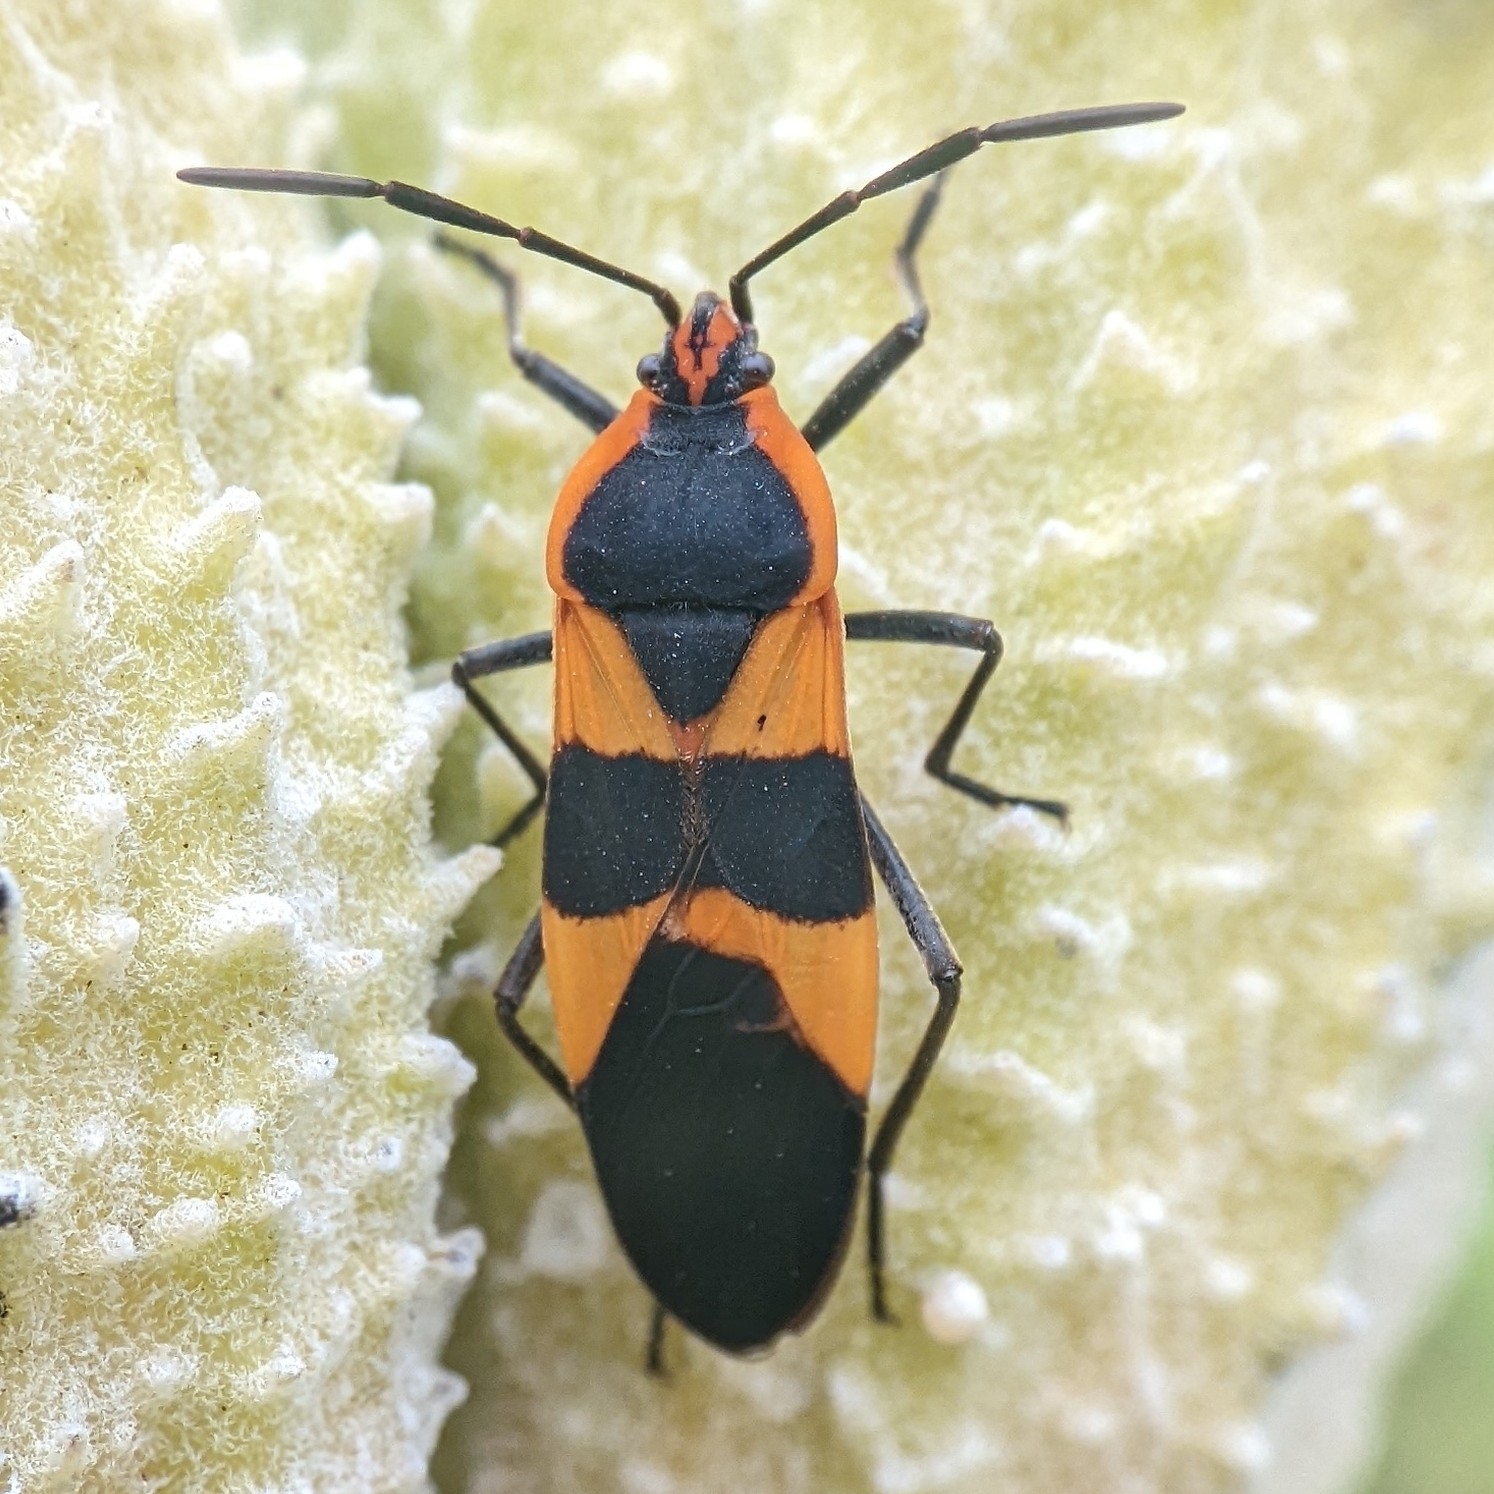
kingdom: Animalia
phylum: Arthropoda
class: Insecta
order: Hemiptera
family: Lygaeidae
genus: Oncopeltus
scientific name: Oncopeltus fasciatus
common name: Large milkweed bug
